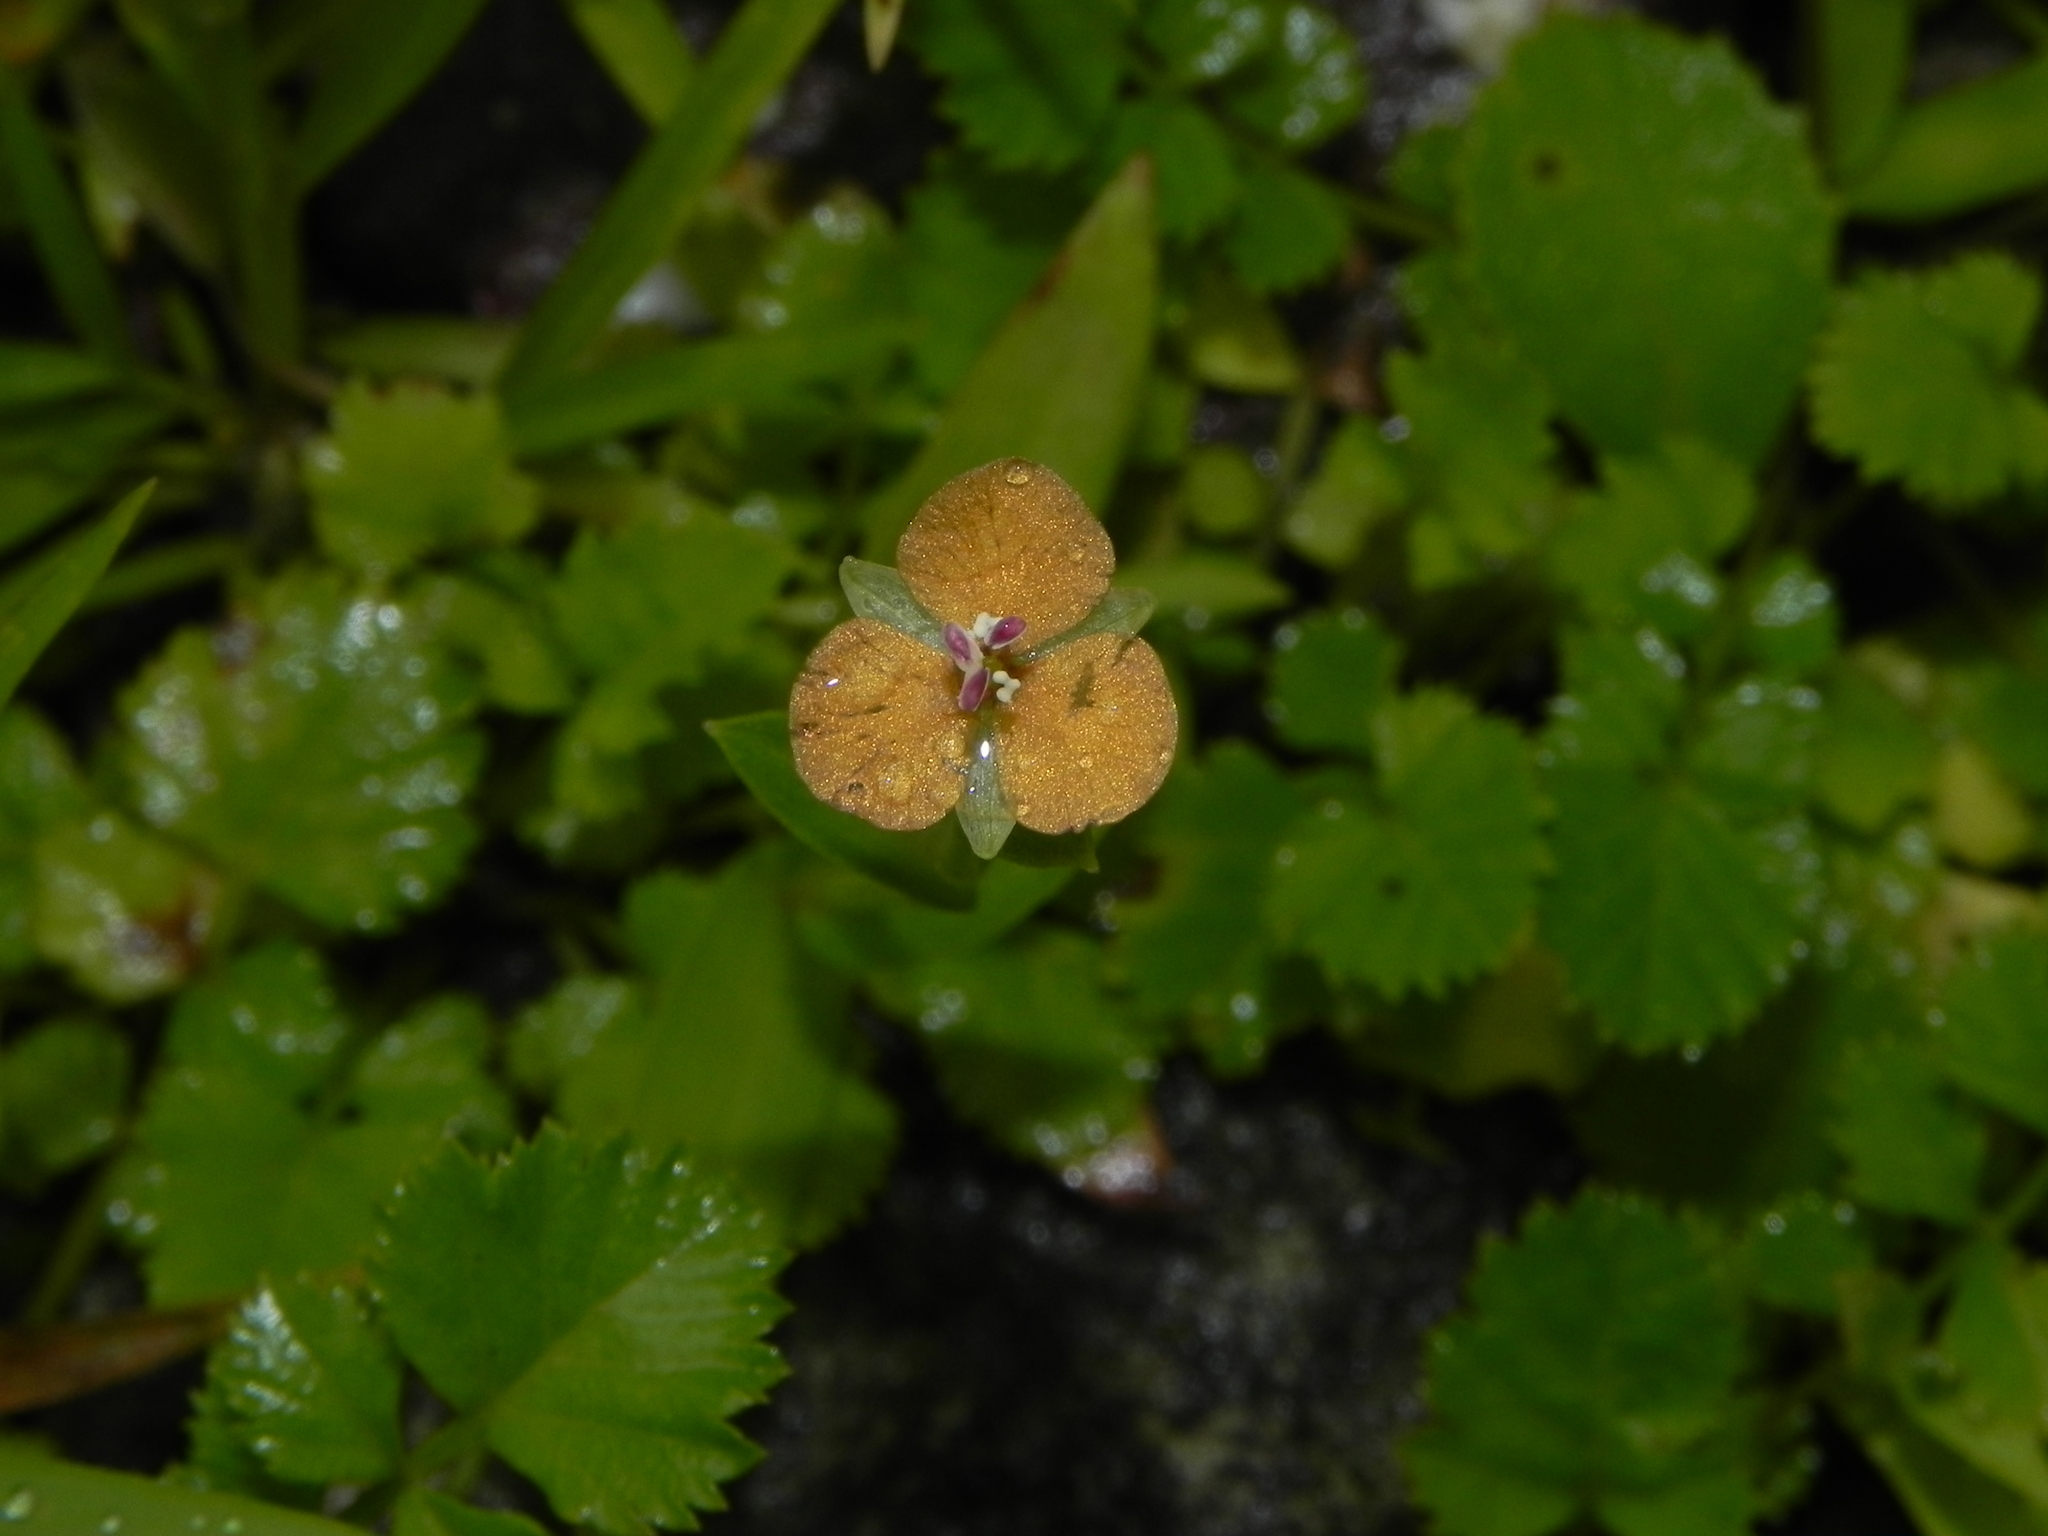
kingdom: Plantae
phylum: Tracheophyta
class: Liliopsida
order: Commelinales
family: Commelinaceae
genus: Murdannia
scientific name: Murdannia crocea
